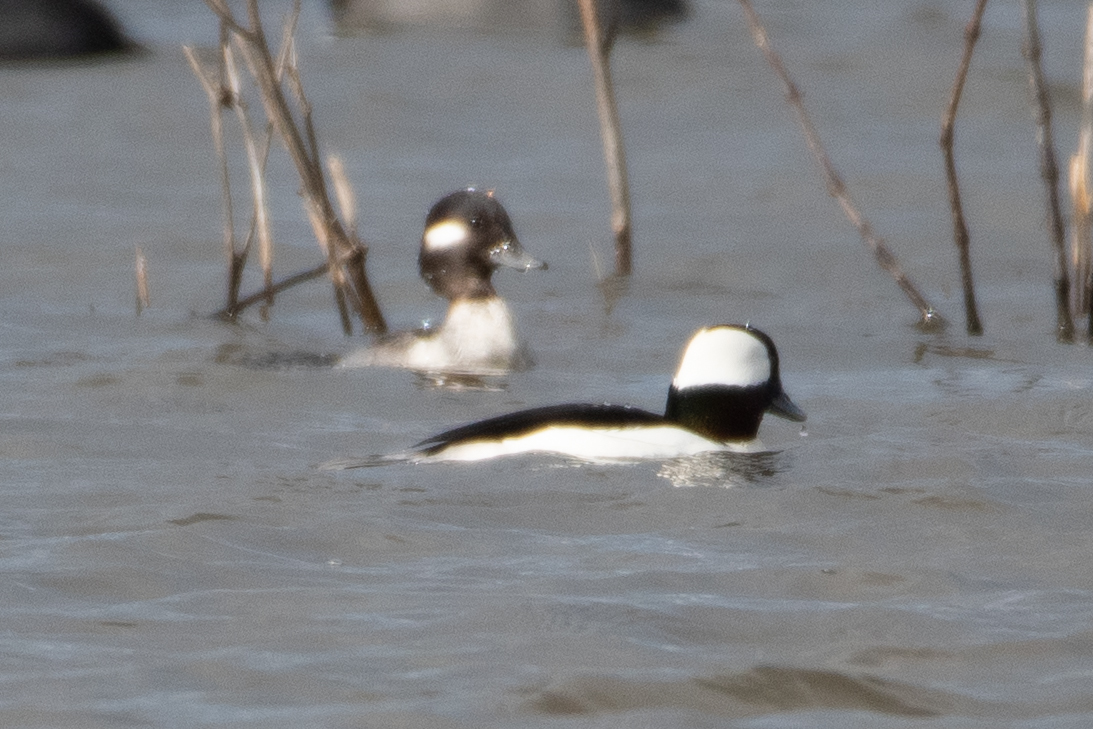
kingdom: Animalia
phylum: Chordata
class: Aves
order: Anseriformes
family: Anatidae
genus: Bucephala
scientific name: Bucephala albeola
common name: Bufflehead
